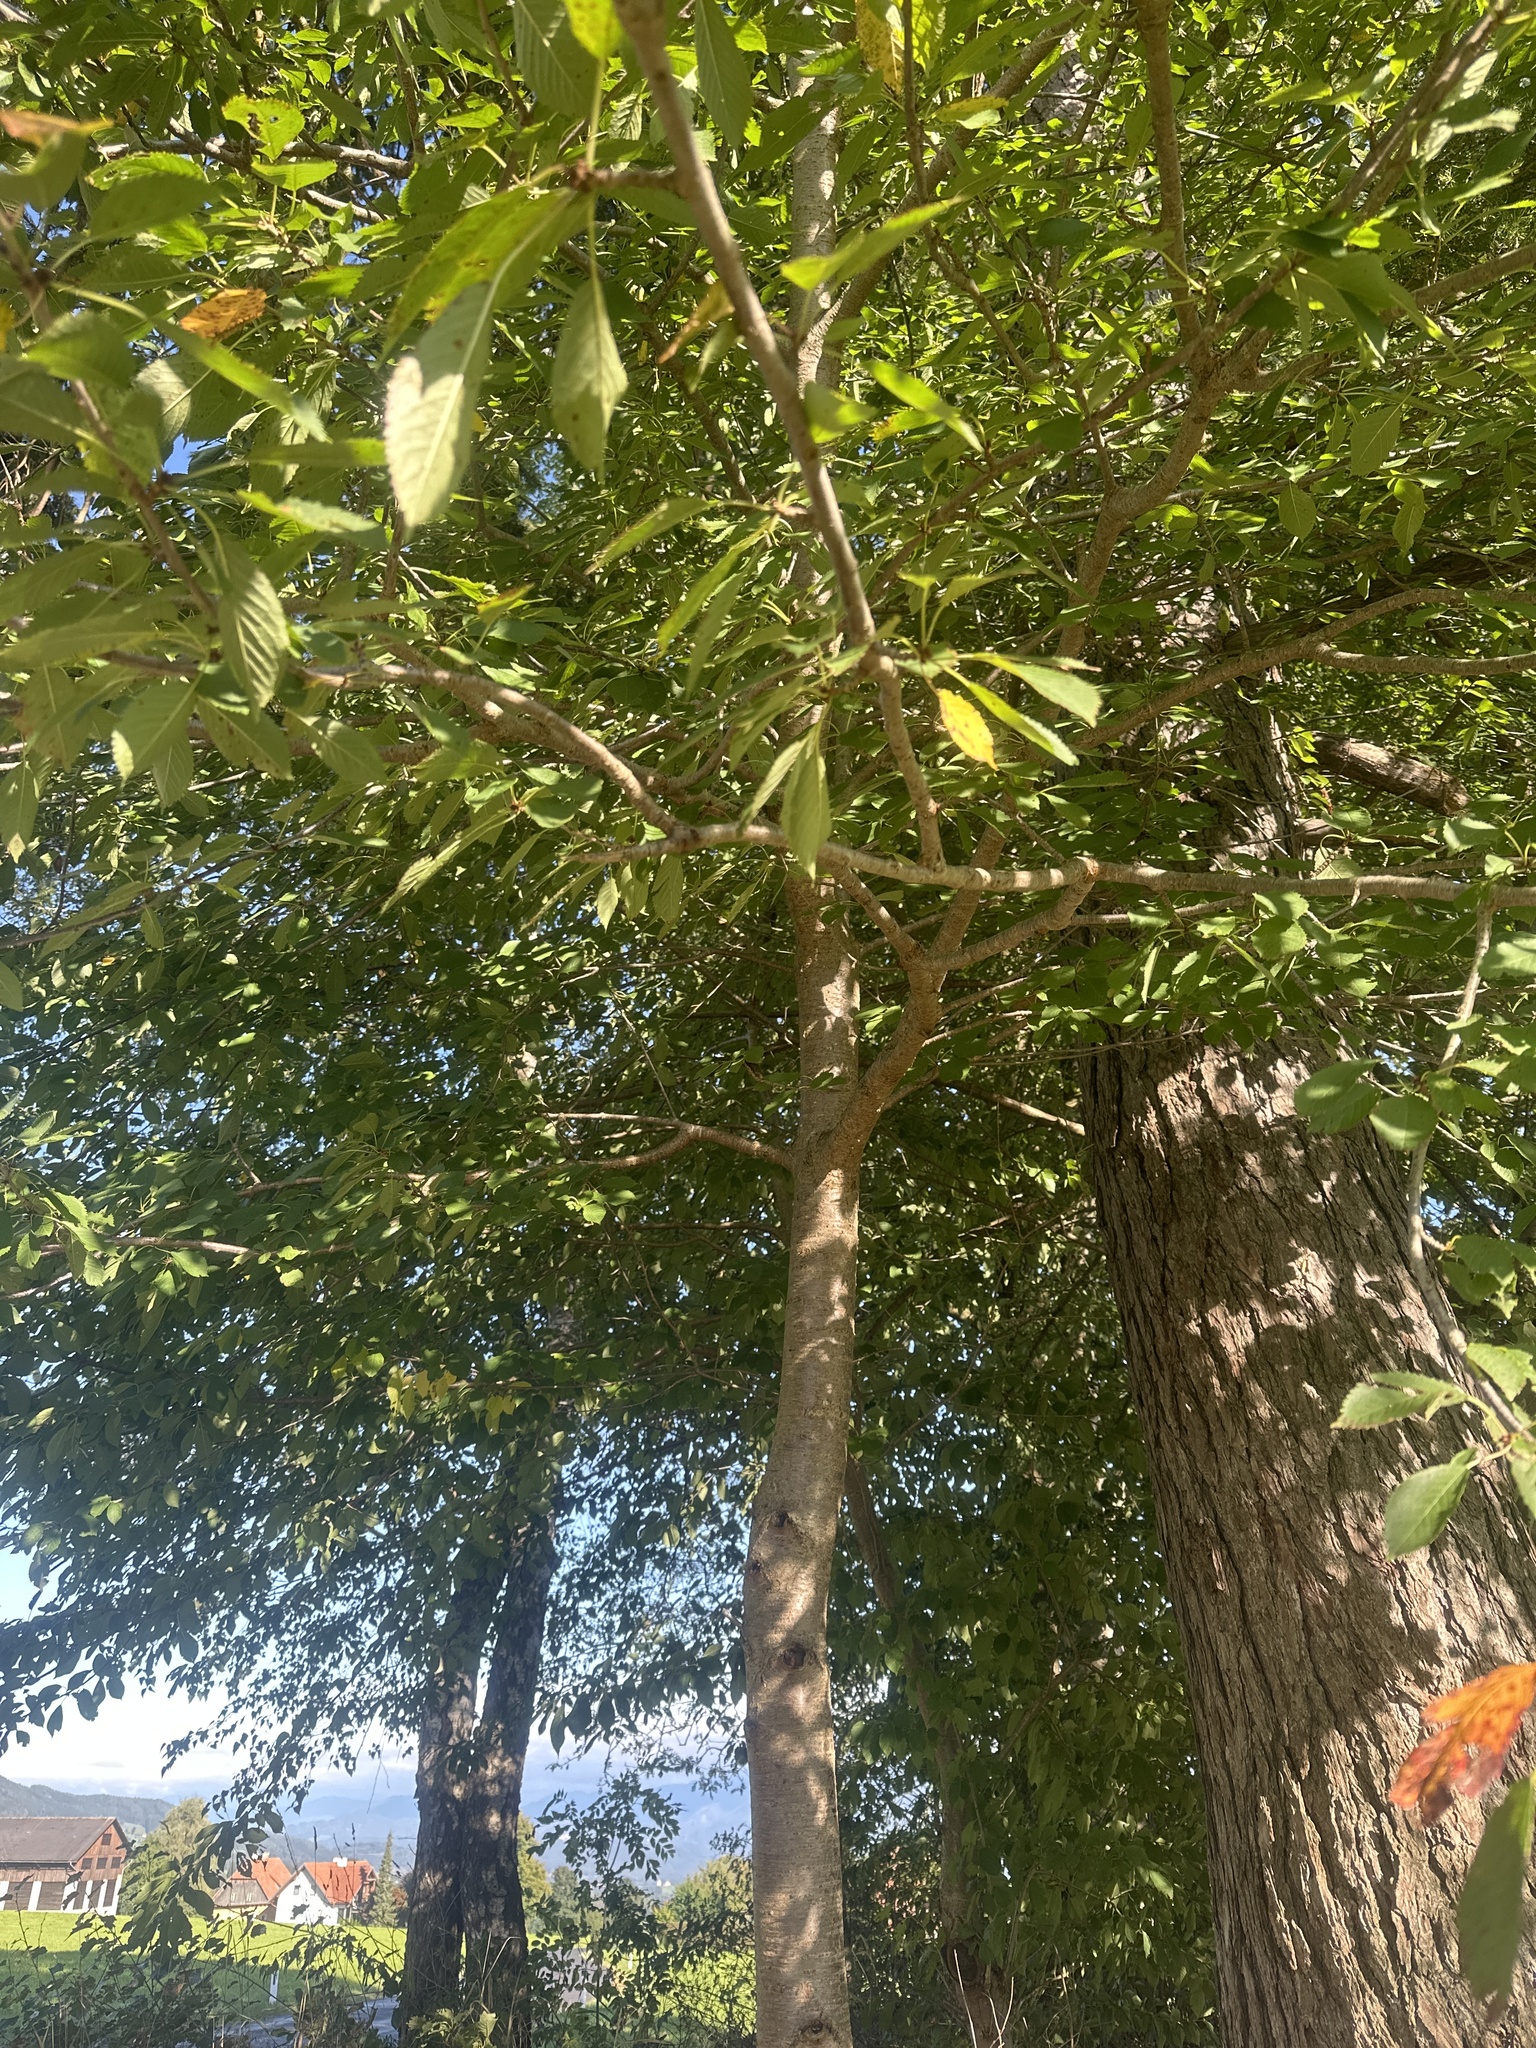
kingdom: Plantae
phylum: Tracheophyta
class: Magnoliopsida
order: Rosales
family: Rosaceae
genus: Prunus
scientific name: Prunus avium
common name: Sweet cherry
